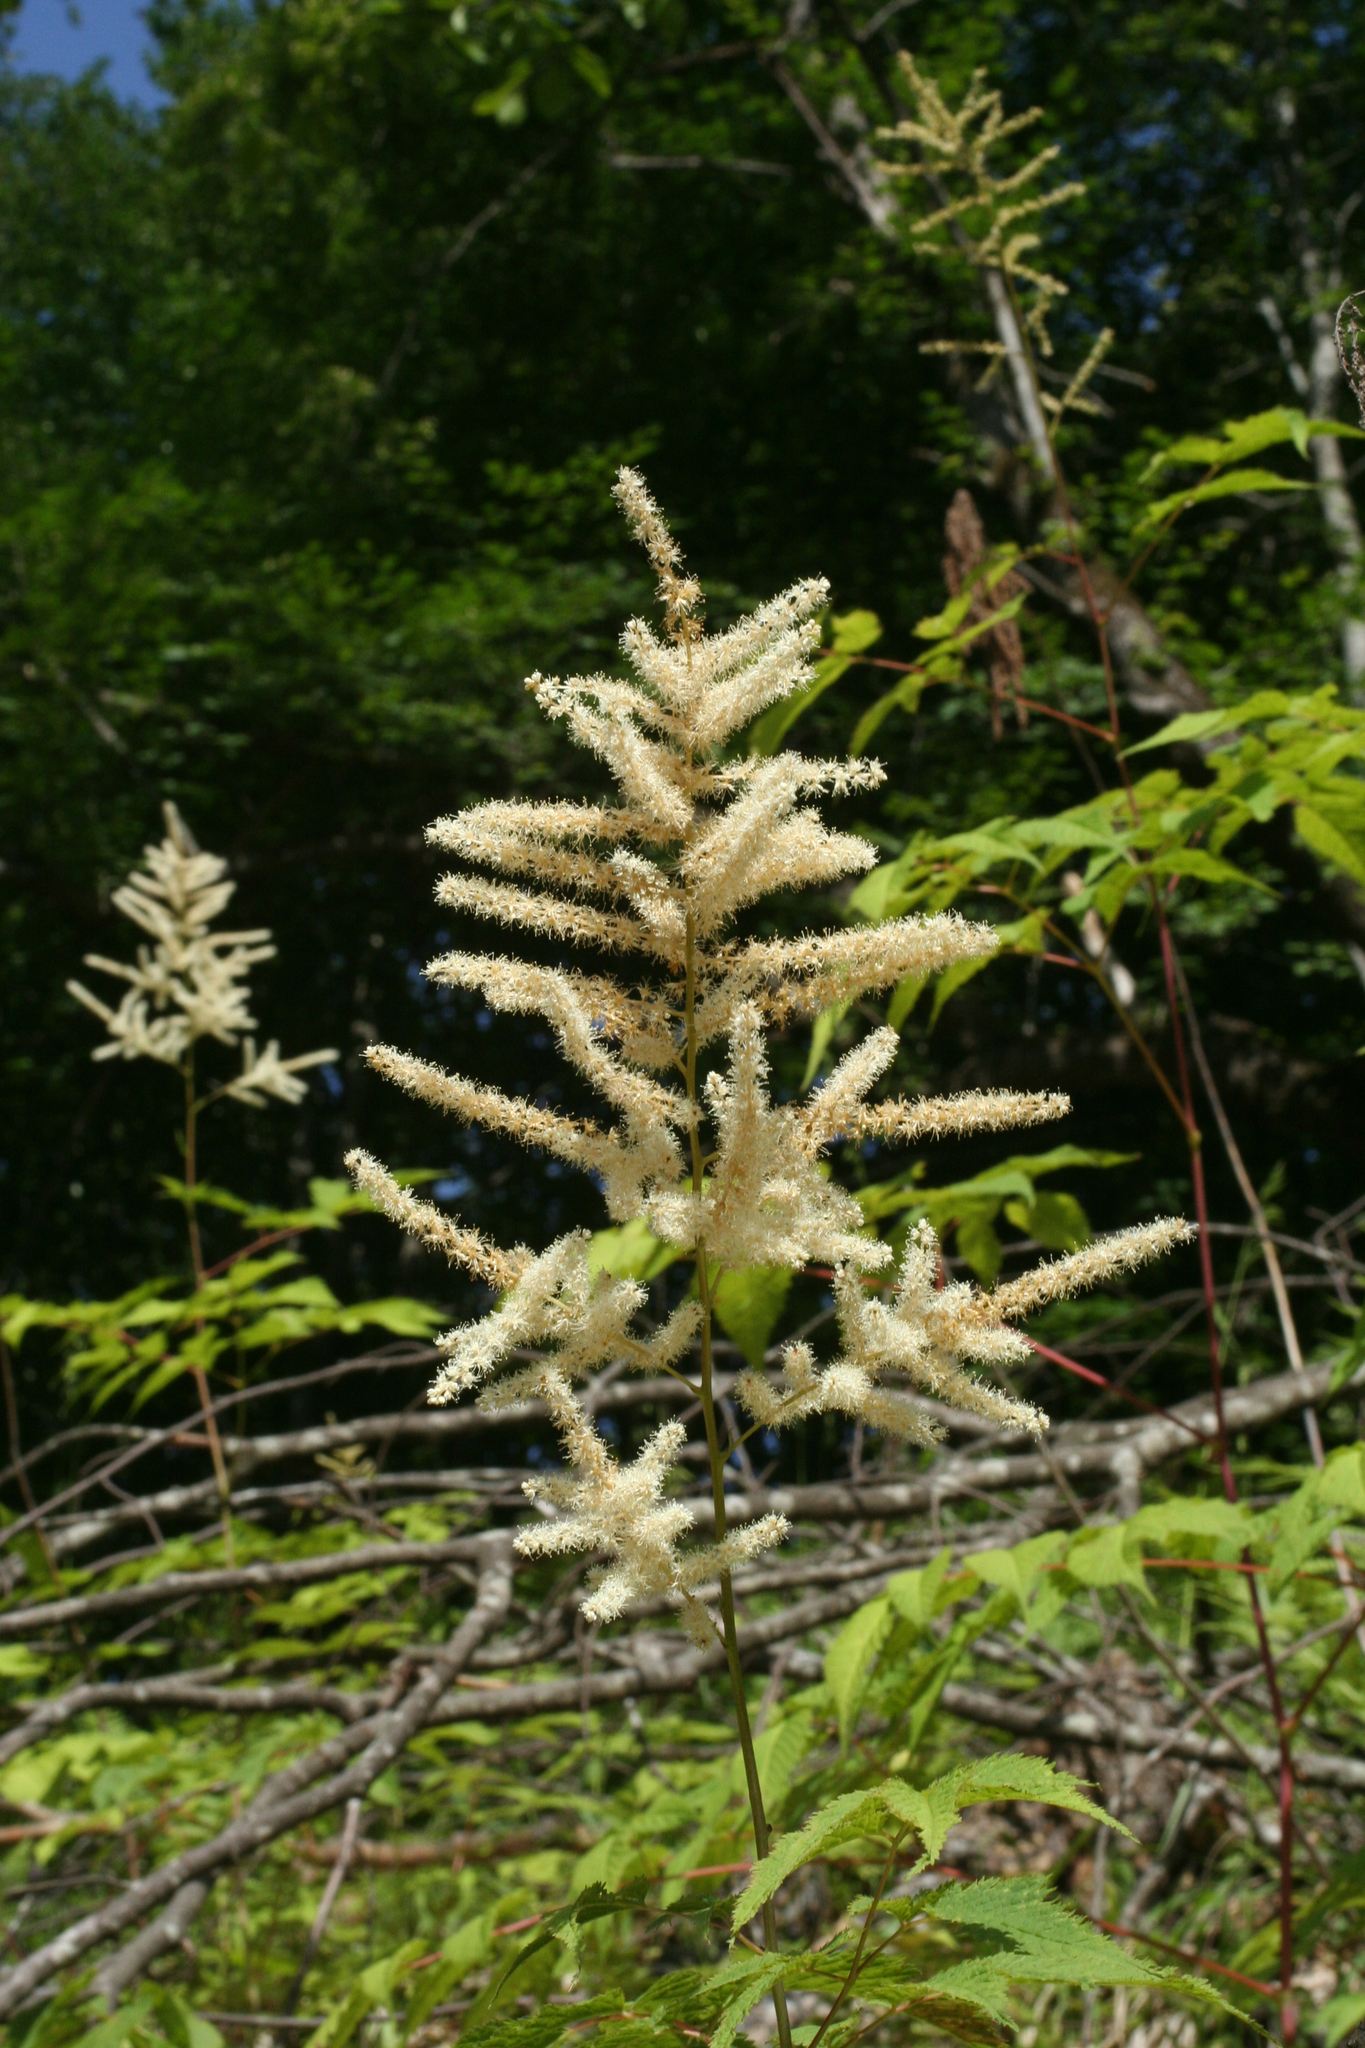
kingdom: Plantae
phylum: Tracheophyta
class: Magnoliopsida
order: Rosales
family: Rosaceae
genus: Aruncus
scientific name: Aruncus sylvester
